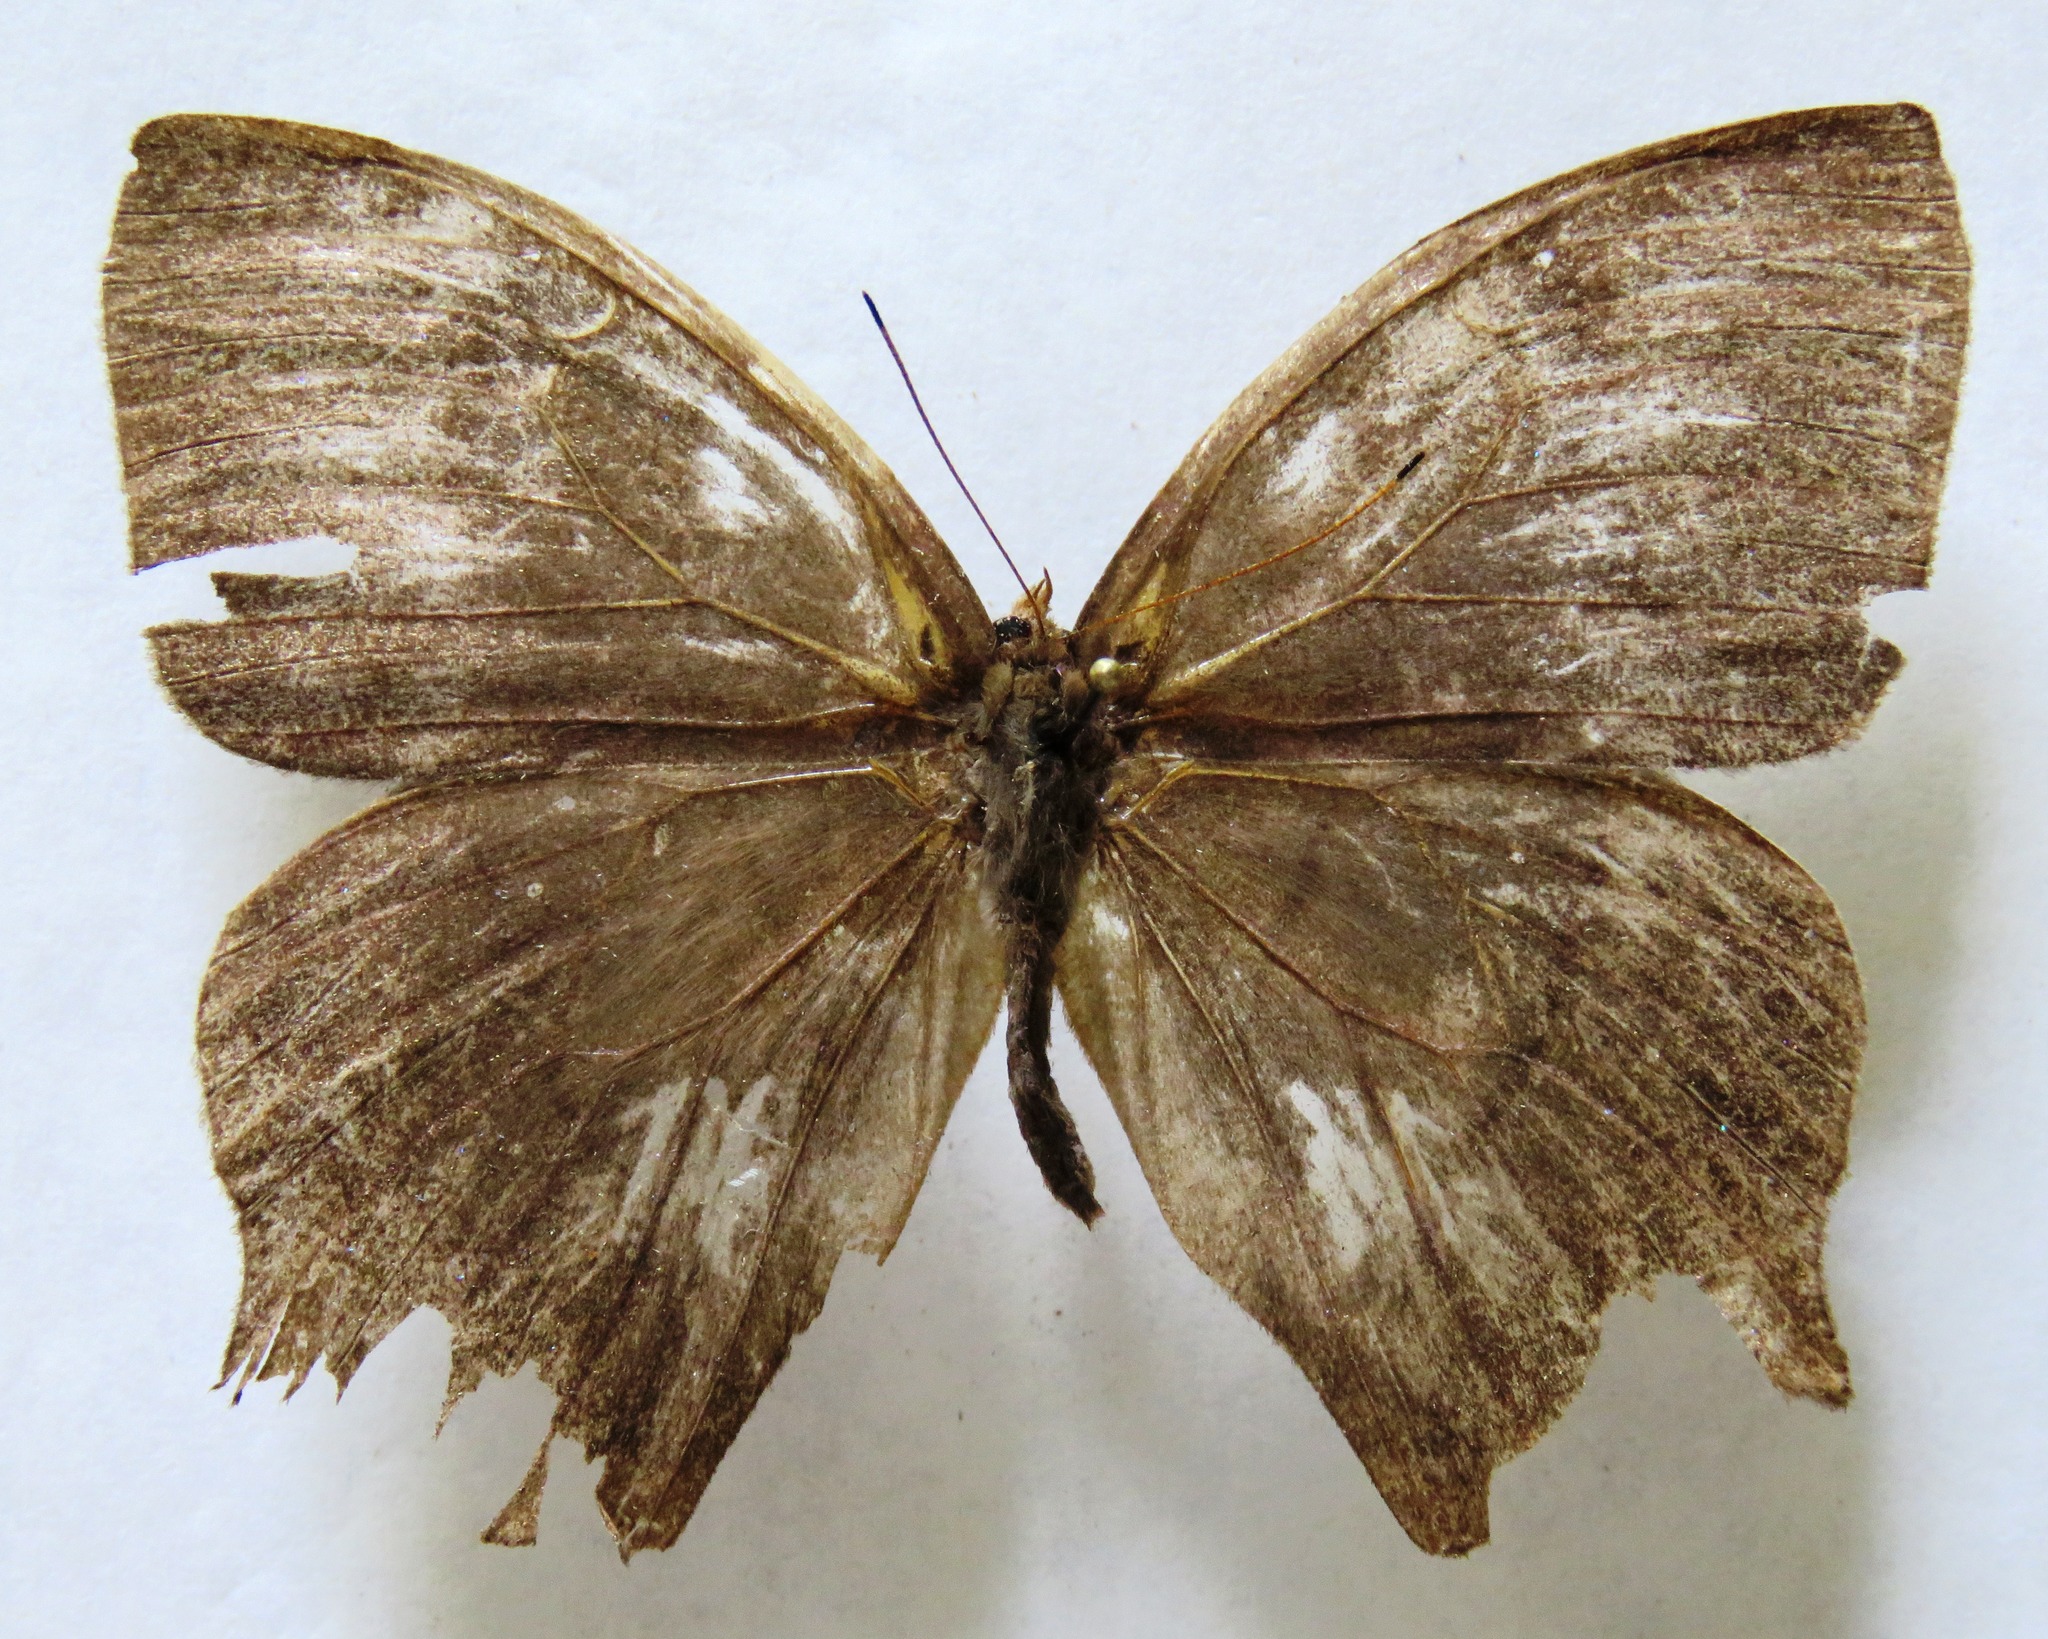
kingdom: Animalia
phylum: Arthropoda
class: Insecta
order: Lepidoptera
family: Nymphalidae
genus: Taygetis
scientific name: Taygetis virgilia
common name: Stub-tailed satyr
